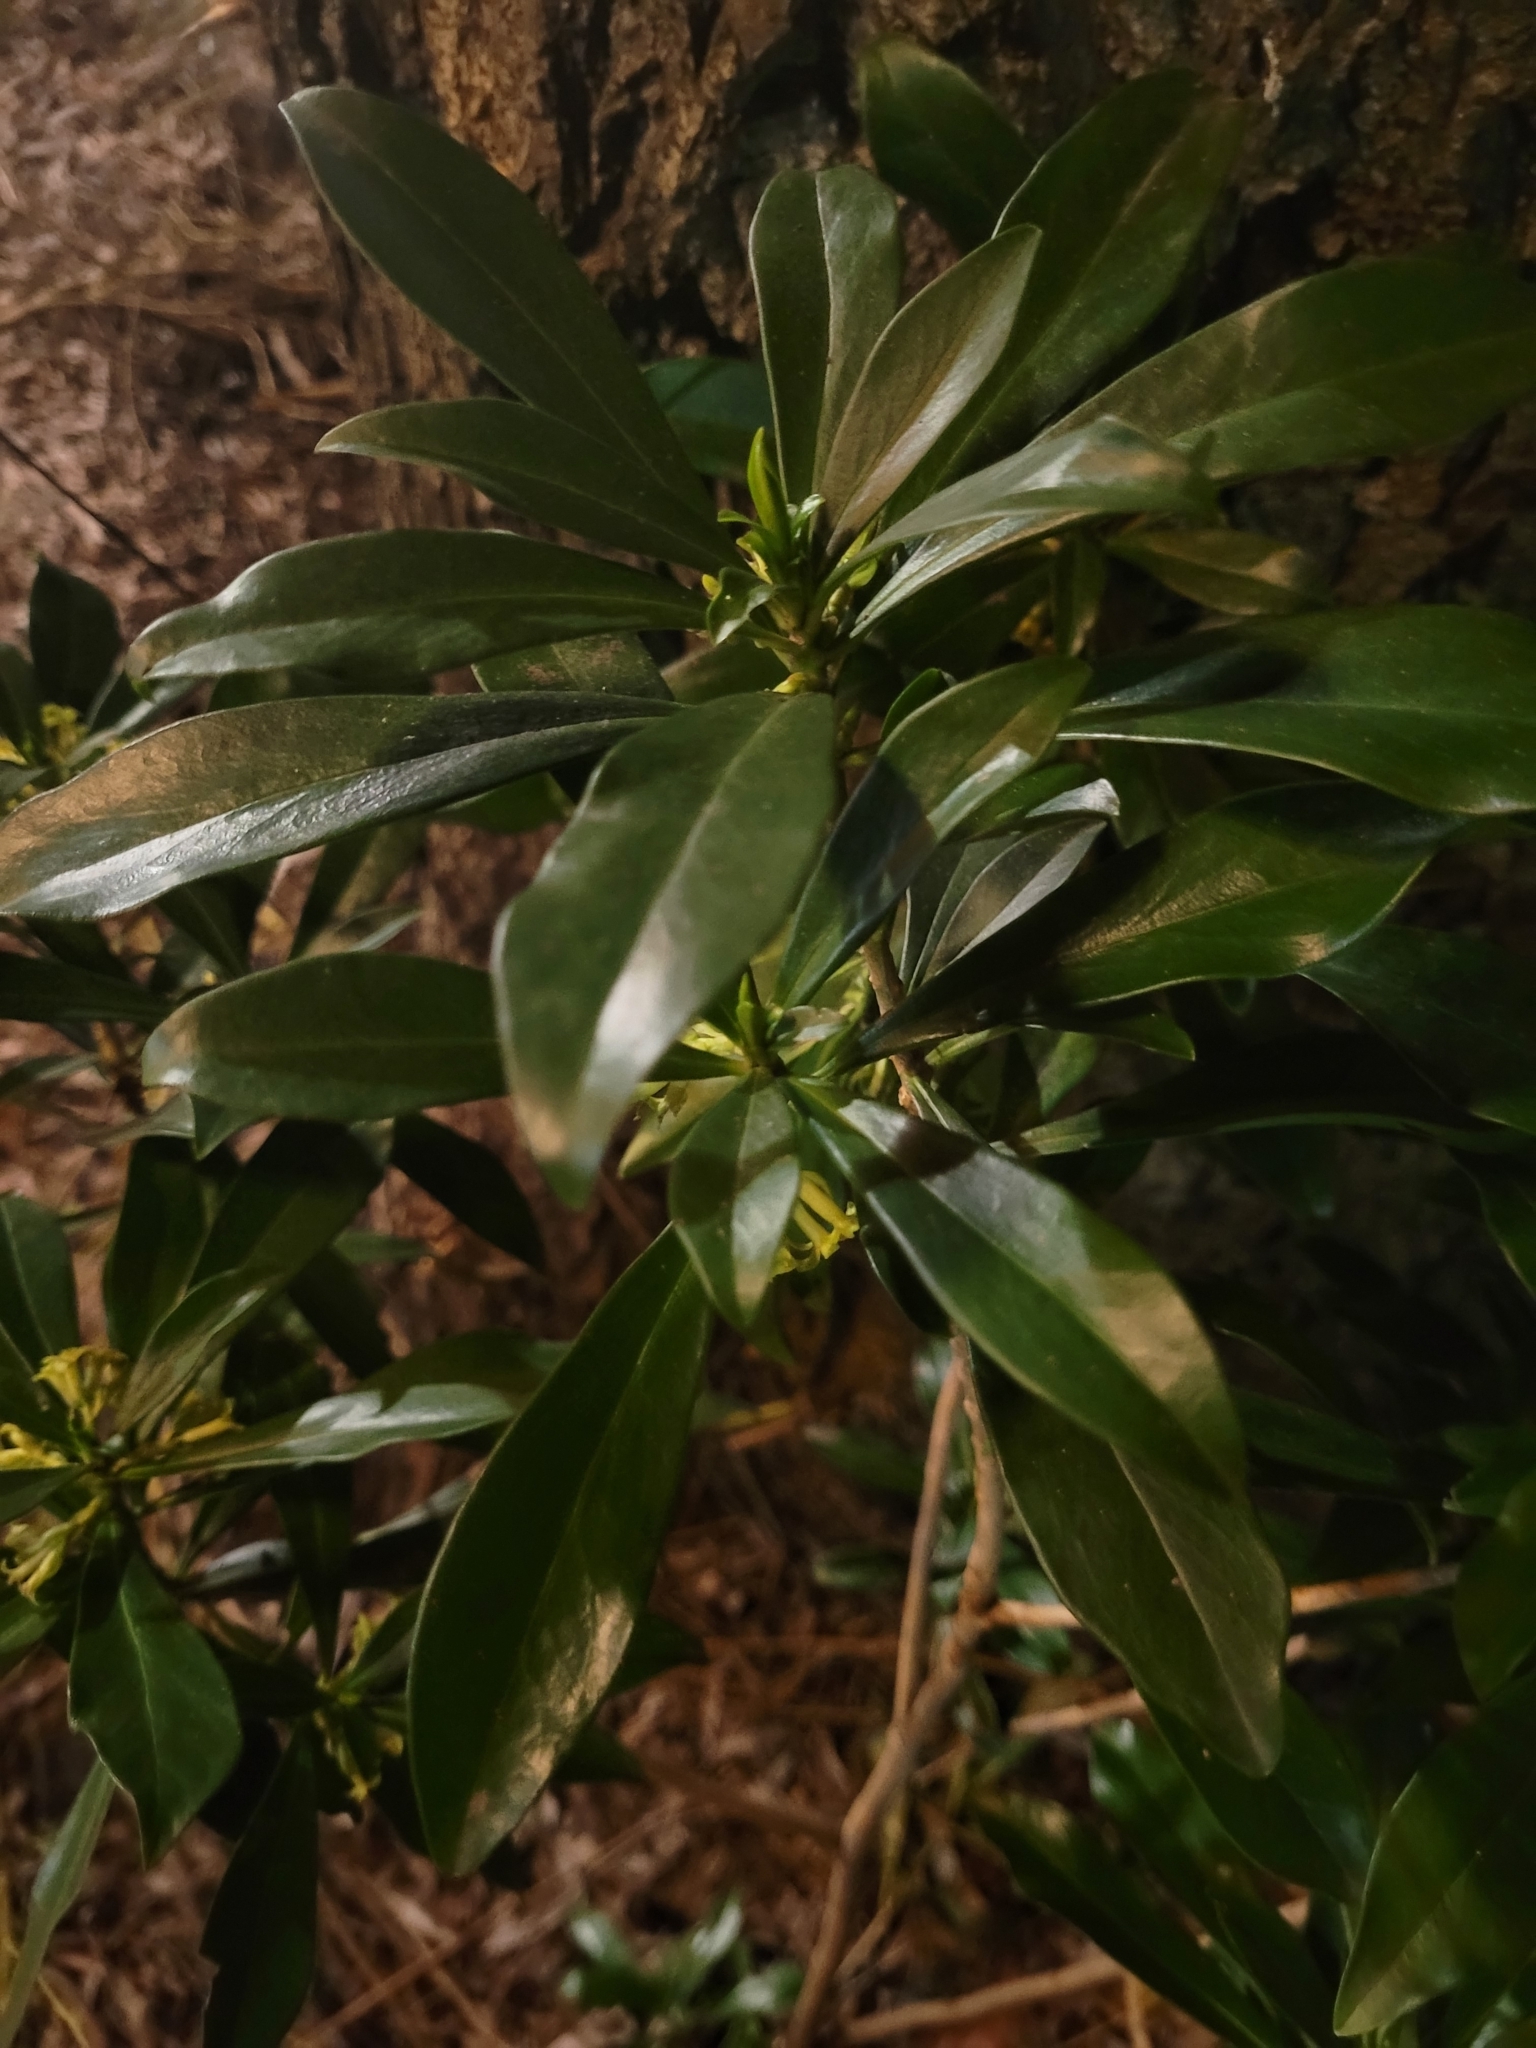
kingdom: Plantae
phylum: Tracheophyta
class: Magnoliopsida
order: Malvales
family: Thymelaeaceae
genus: Daphne
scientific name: Daphne laureola
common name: Spurge-laurel
